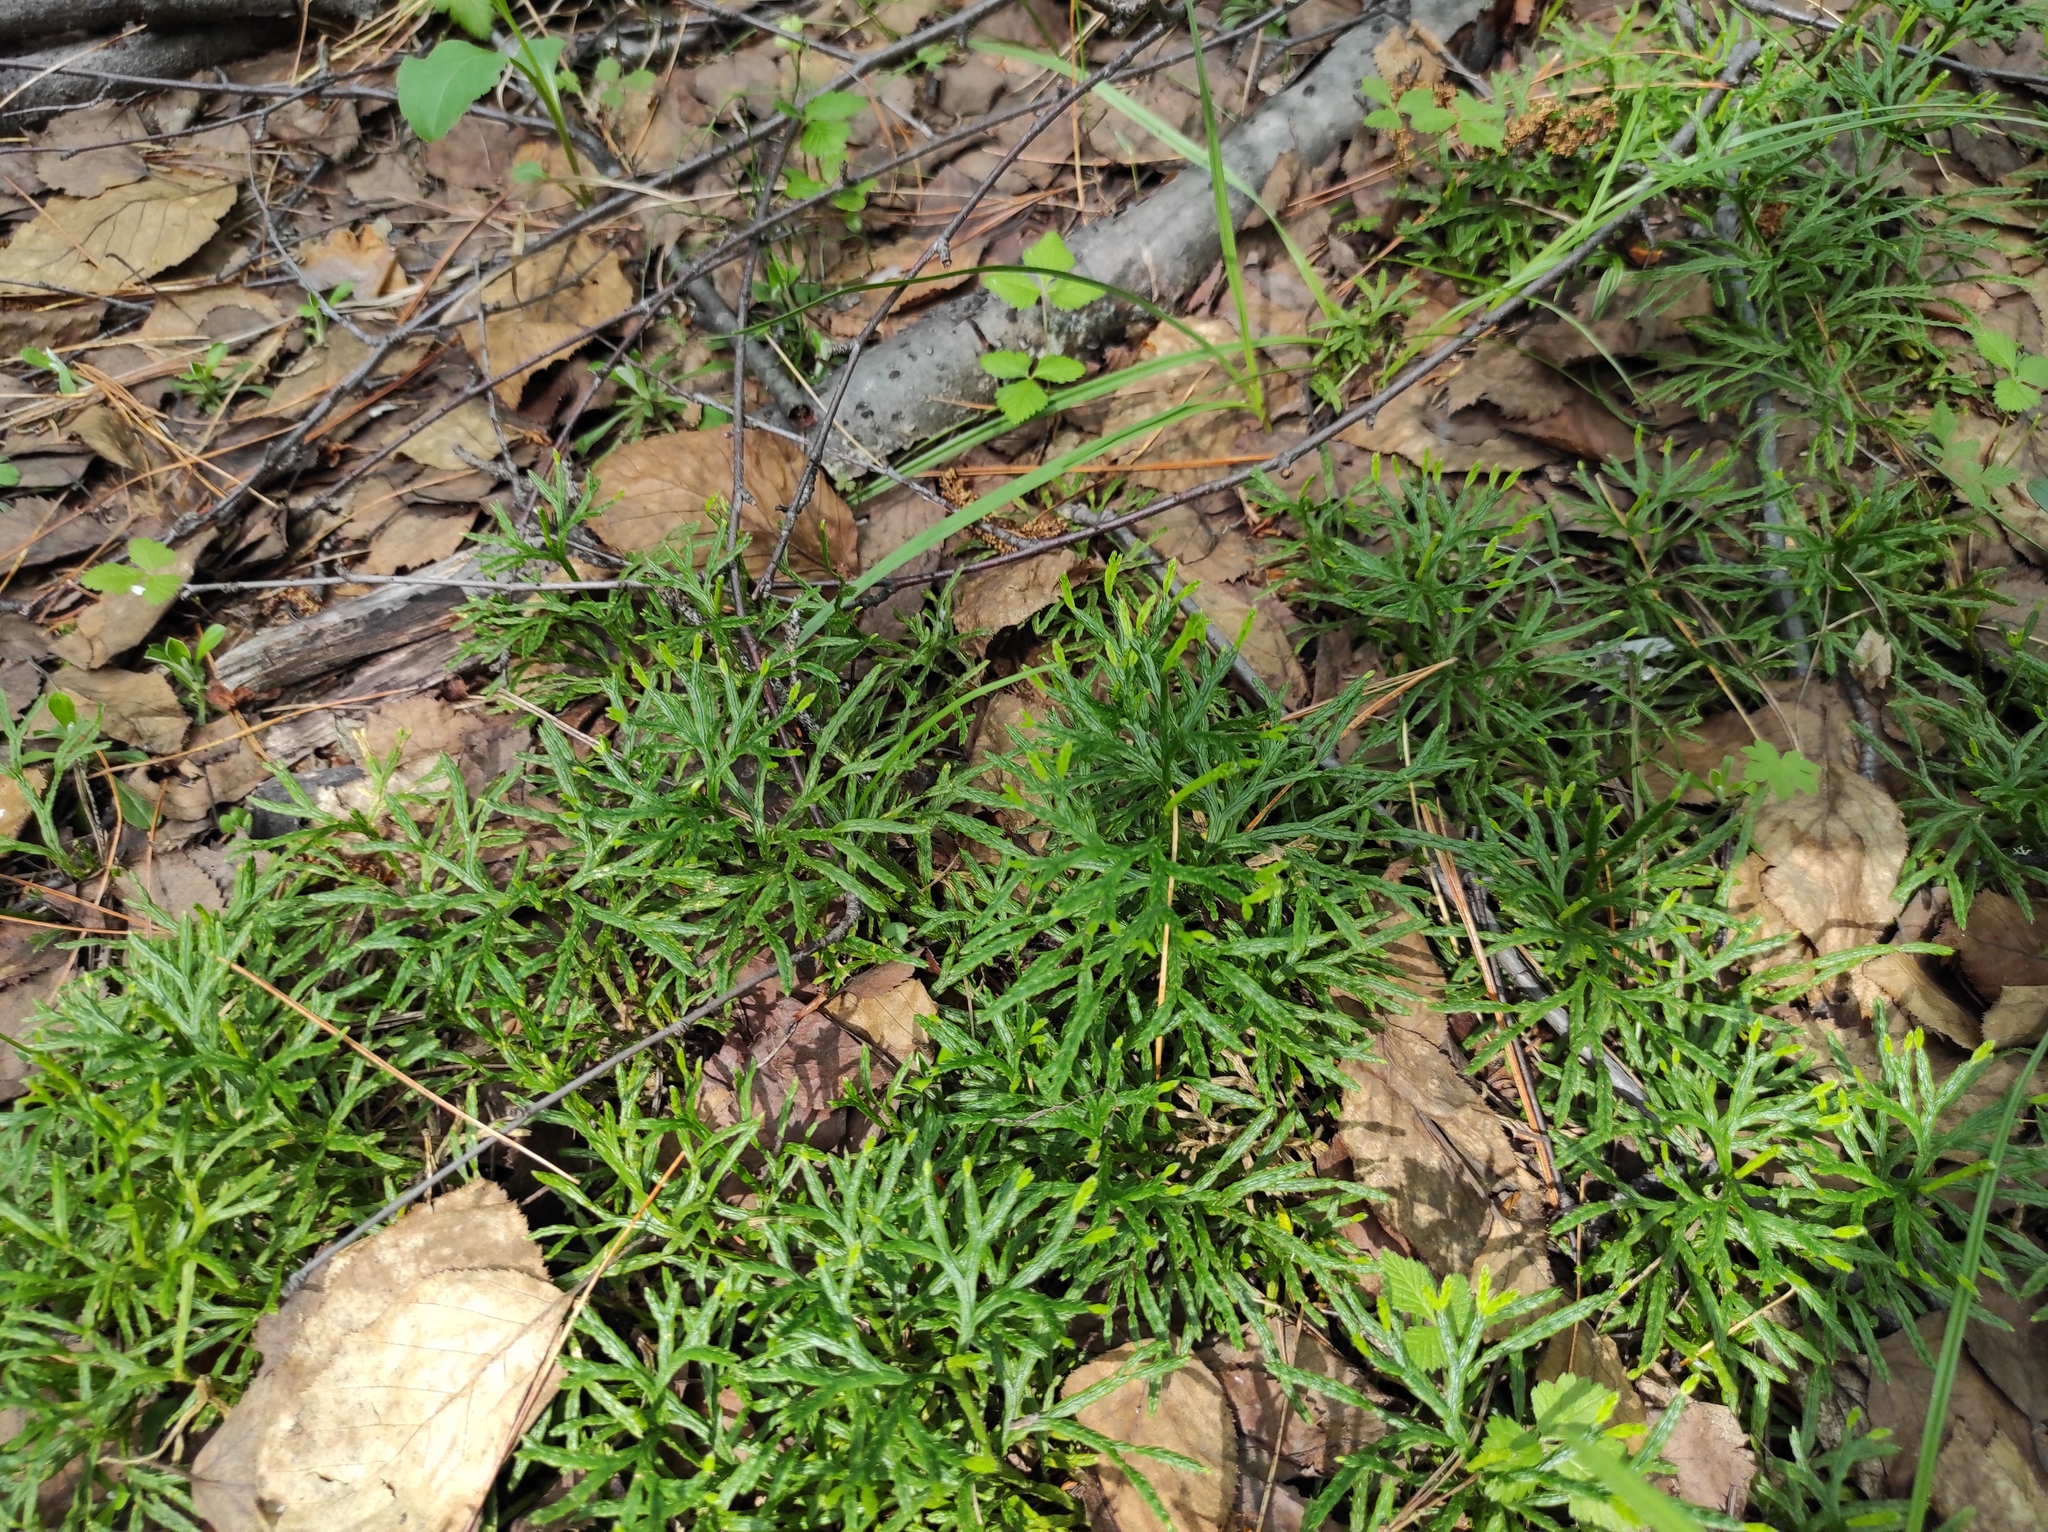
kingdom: Plantae
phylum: Tracheophyta
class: Lycopodiopsida
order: Lycopodiales
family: Lycopodiaceae
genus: Diphasiastrum
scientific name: Diphasiastrum complanatum
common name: Northern running-pine
